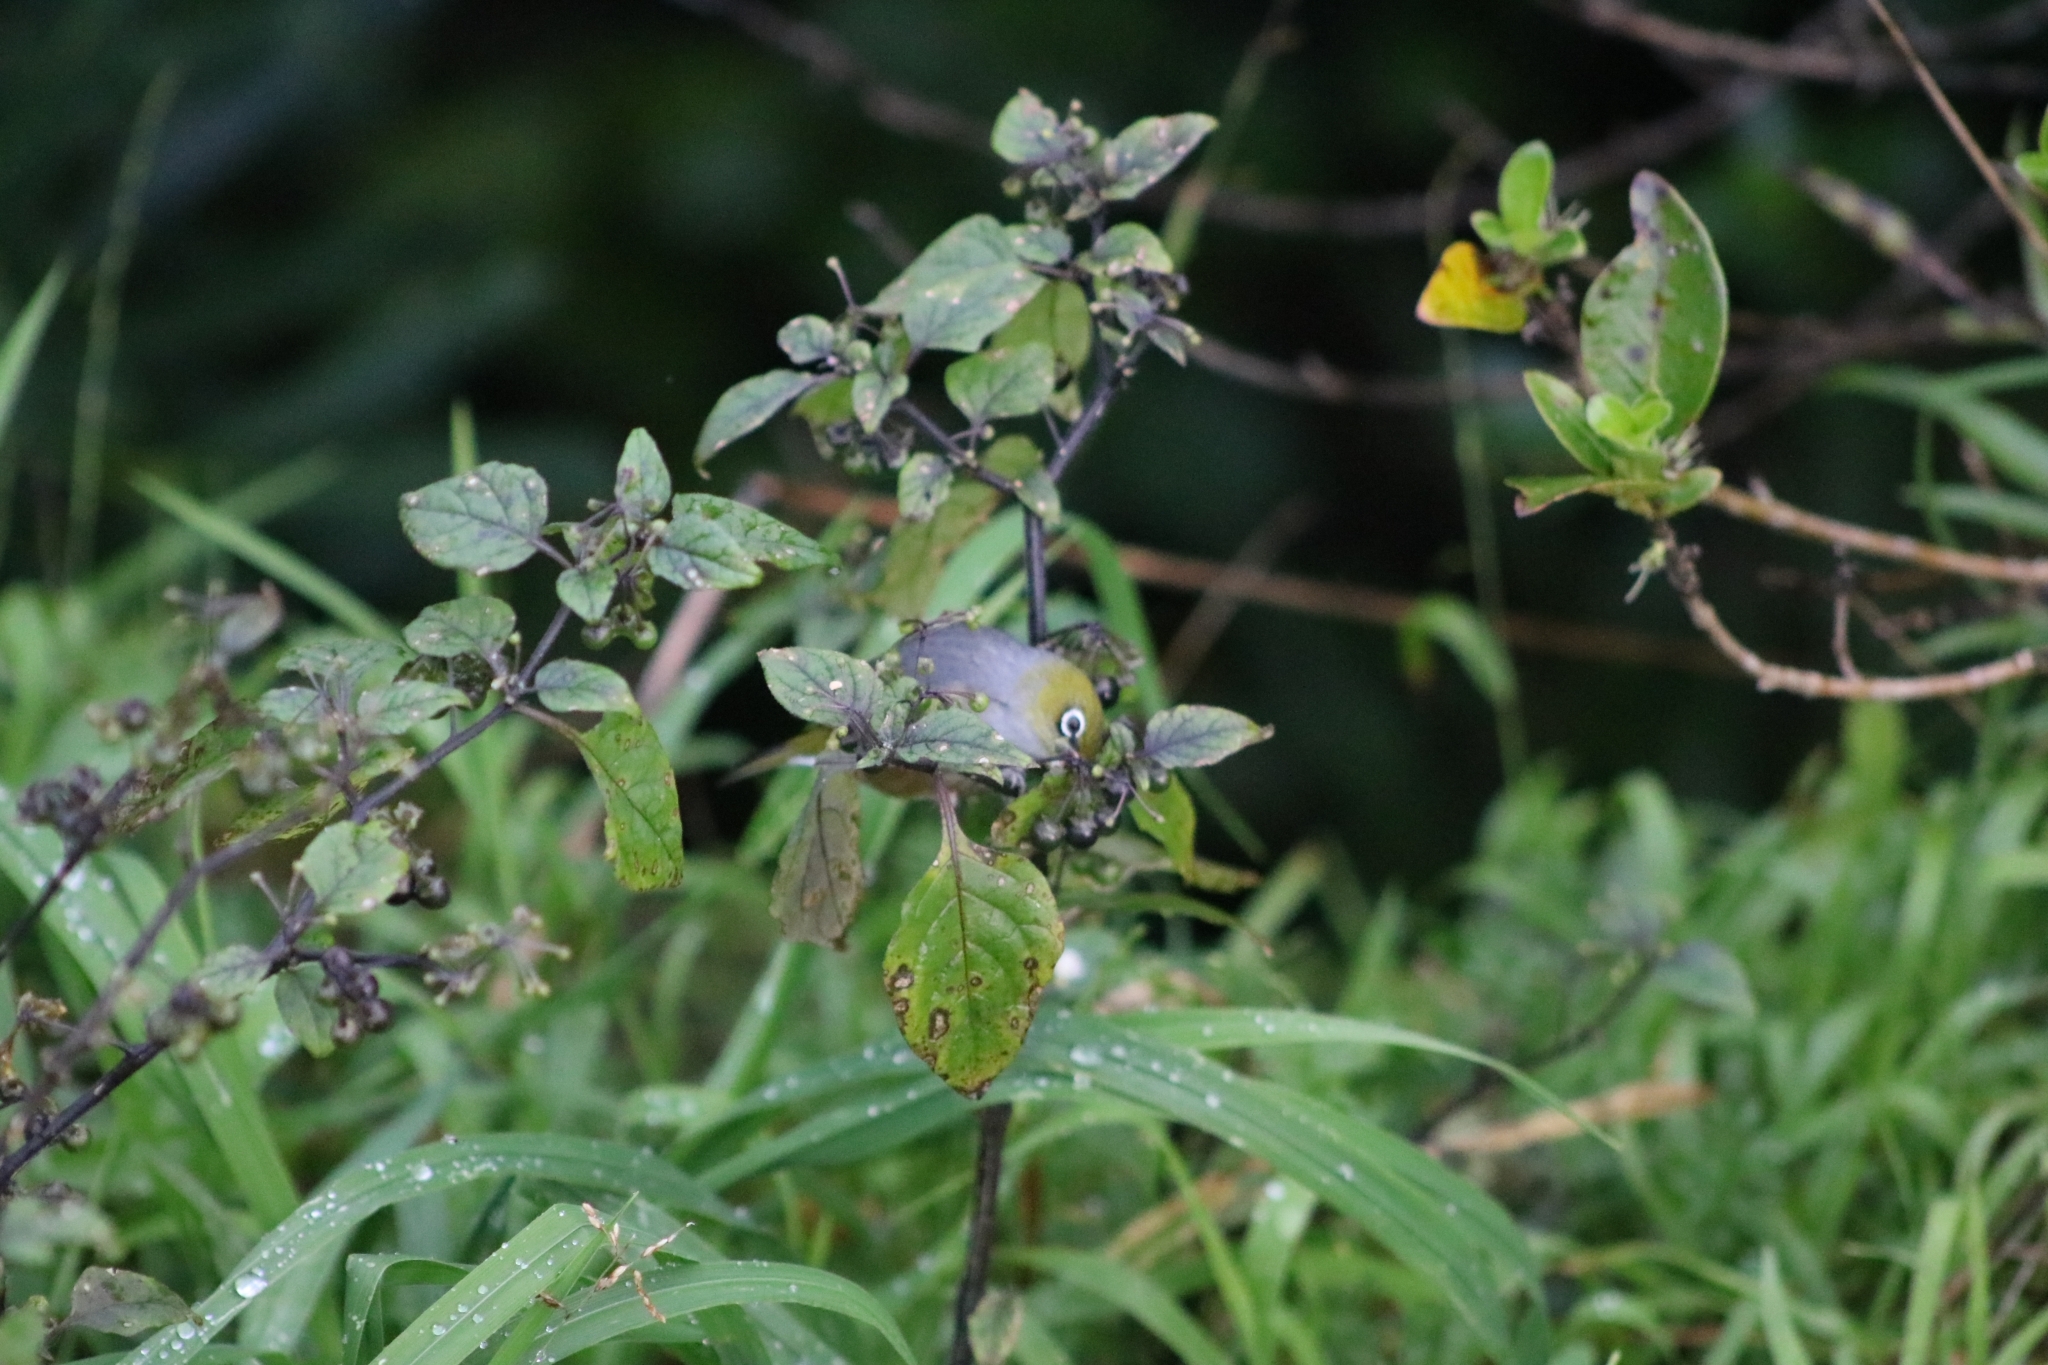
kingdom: Animalia
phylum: Chordata
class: Aves
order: Passeriformes
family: Zosteropidae
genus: Zosterops
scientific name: Zosterops lateralis
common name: Silvereye
